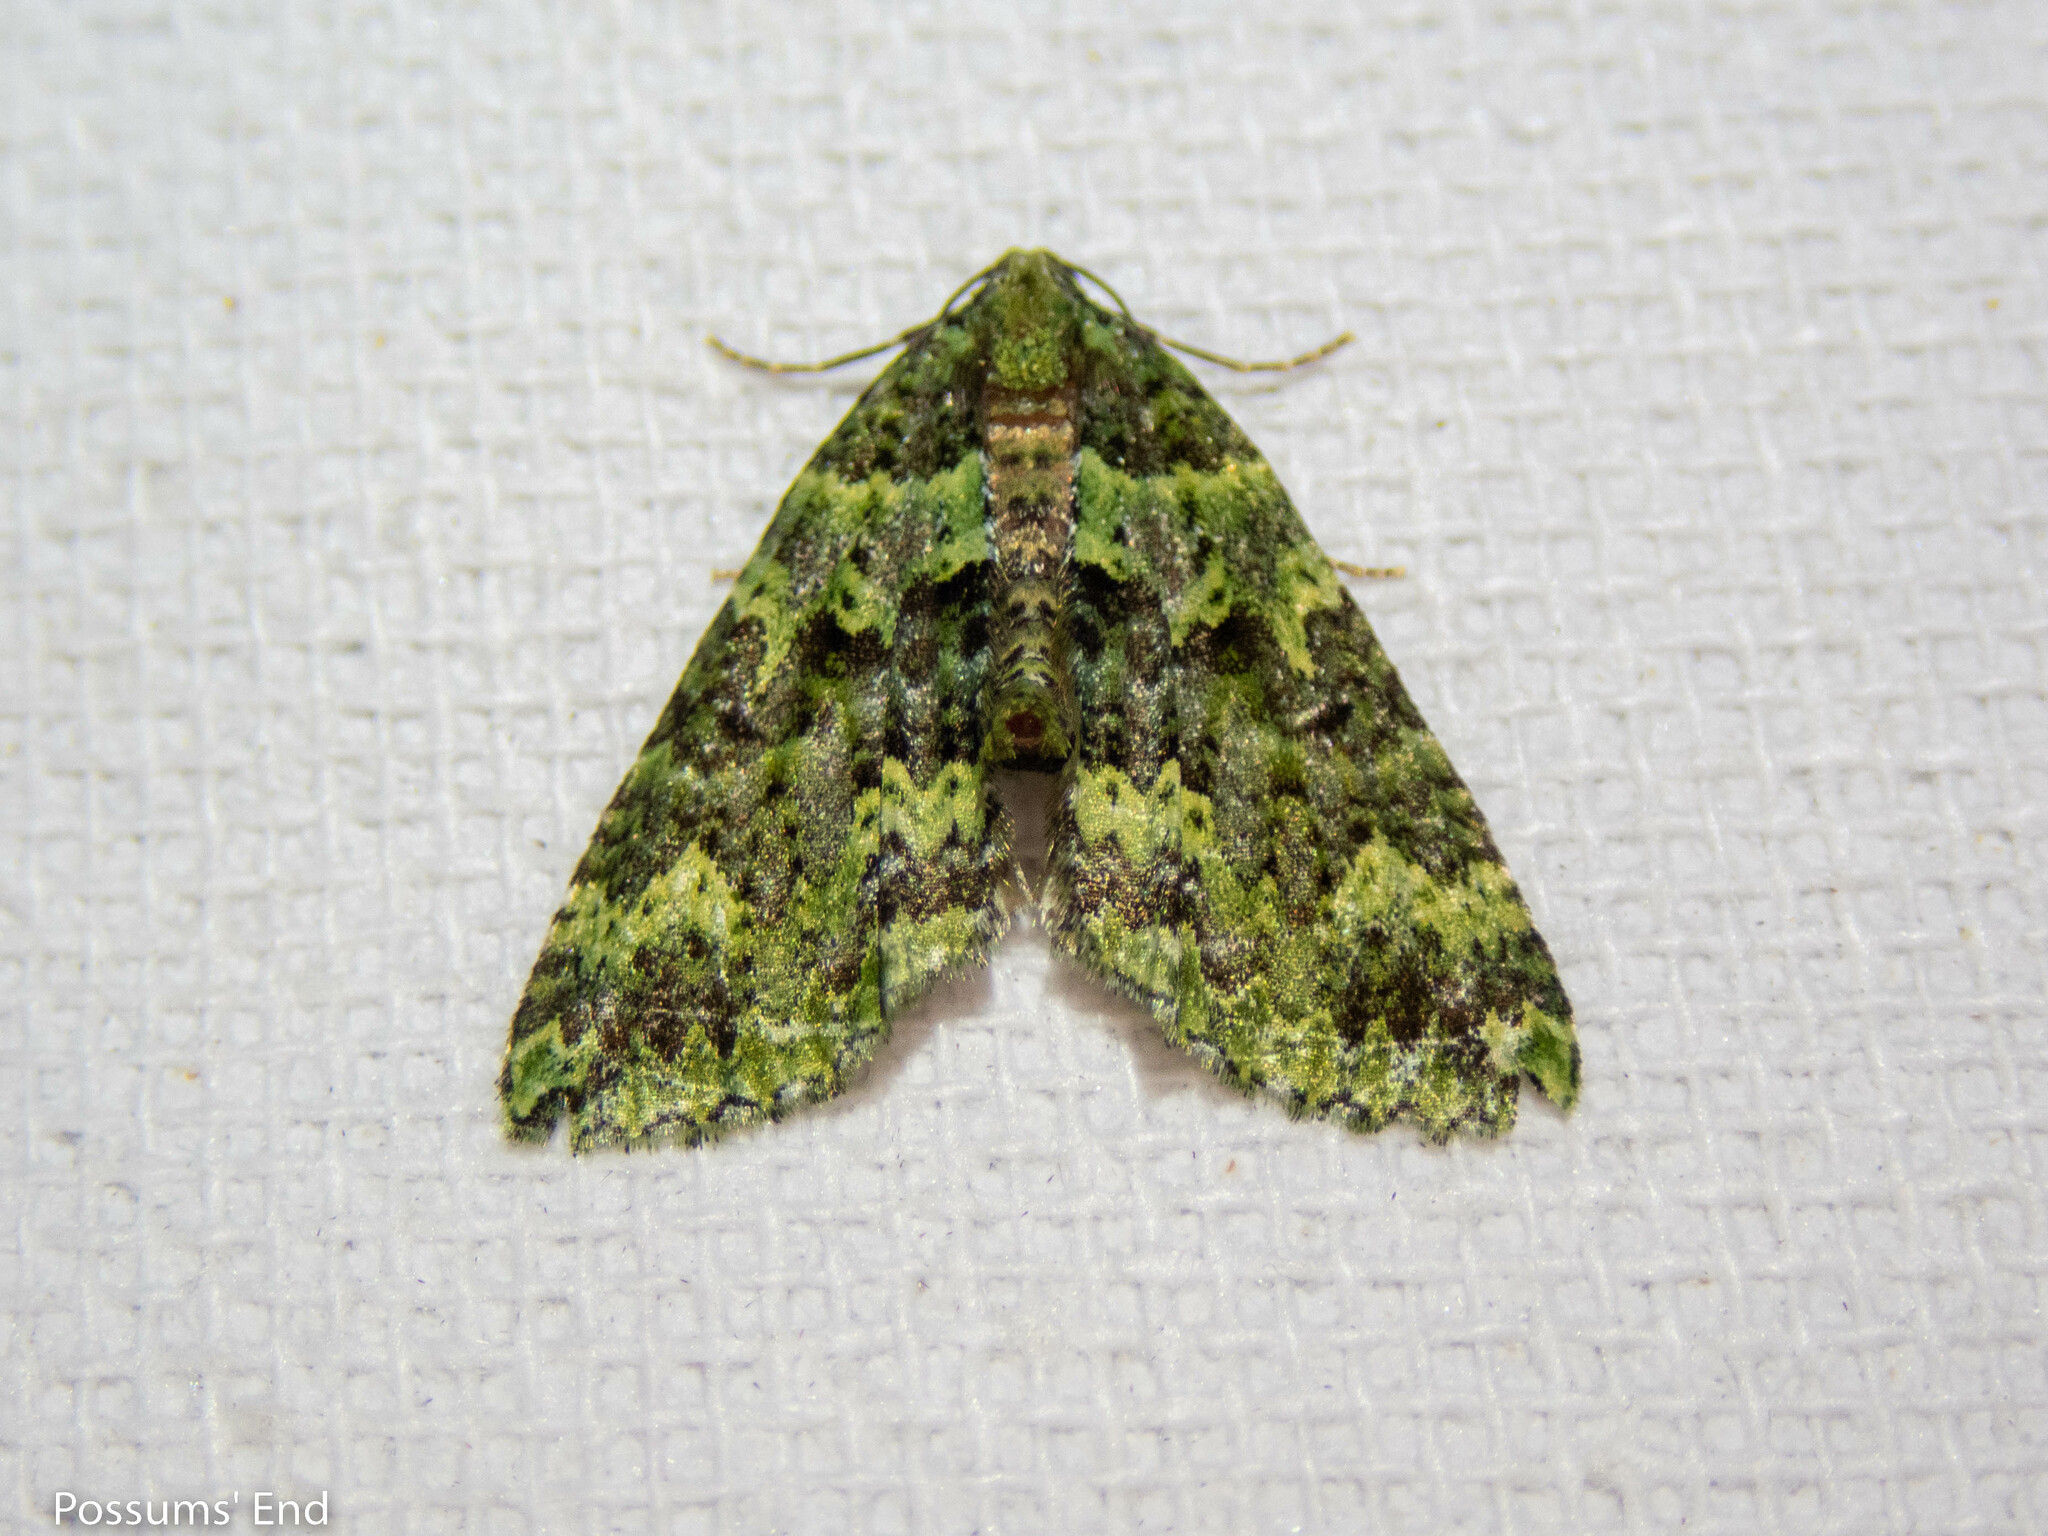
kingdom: Animalia
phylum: Arthropoda
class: Insecta
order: Lepidoptera
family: Geometridae
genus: Austrocidaria
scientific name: Austrocidaria callichlora
